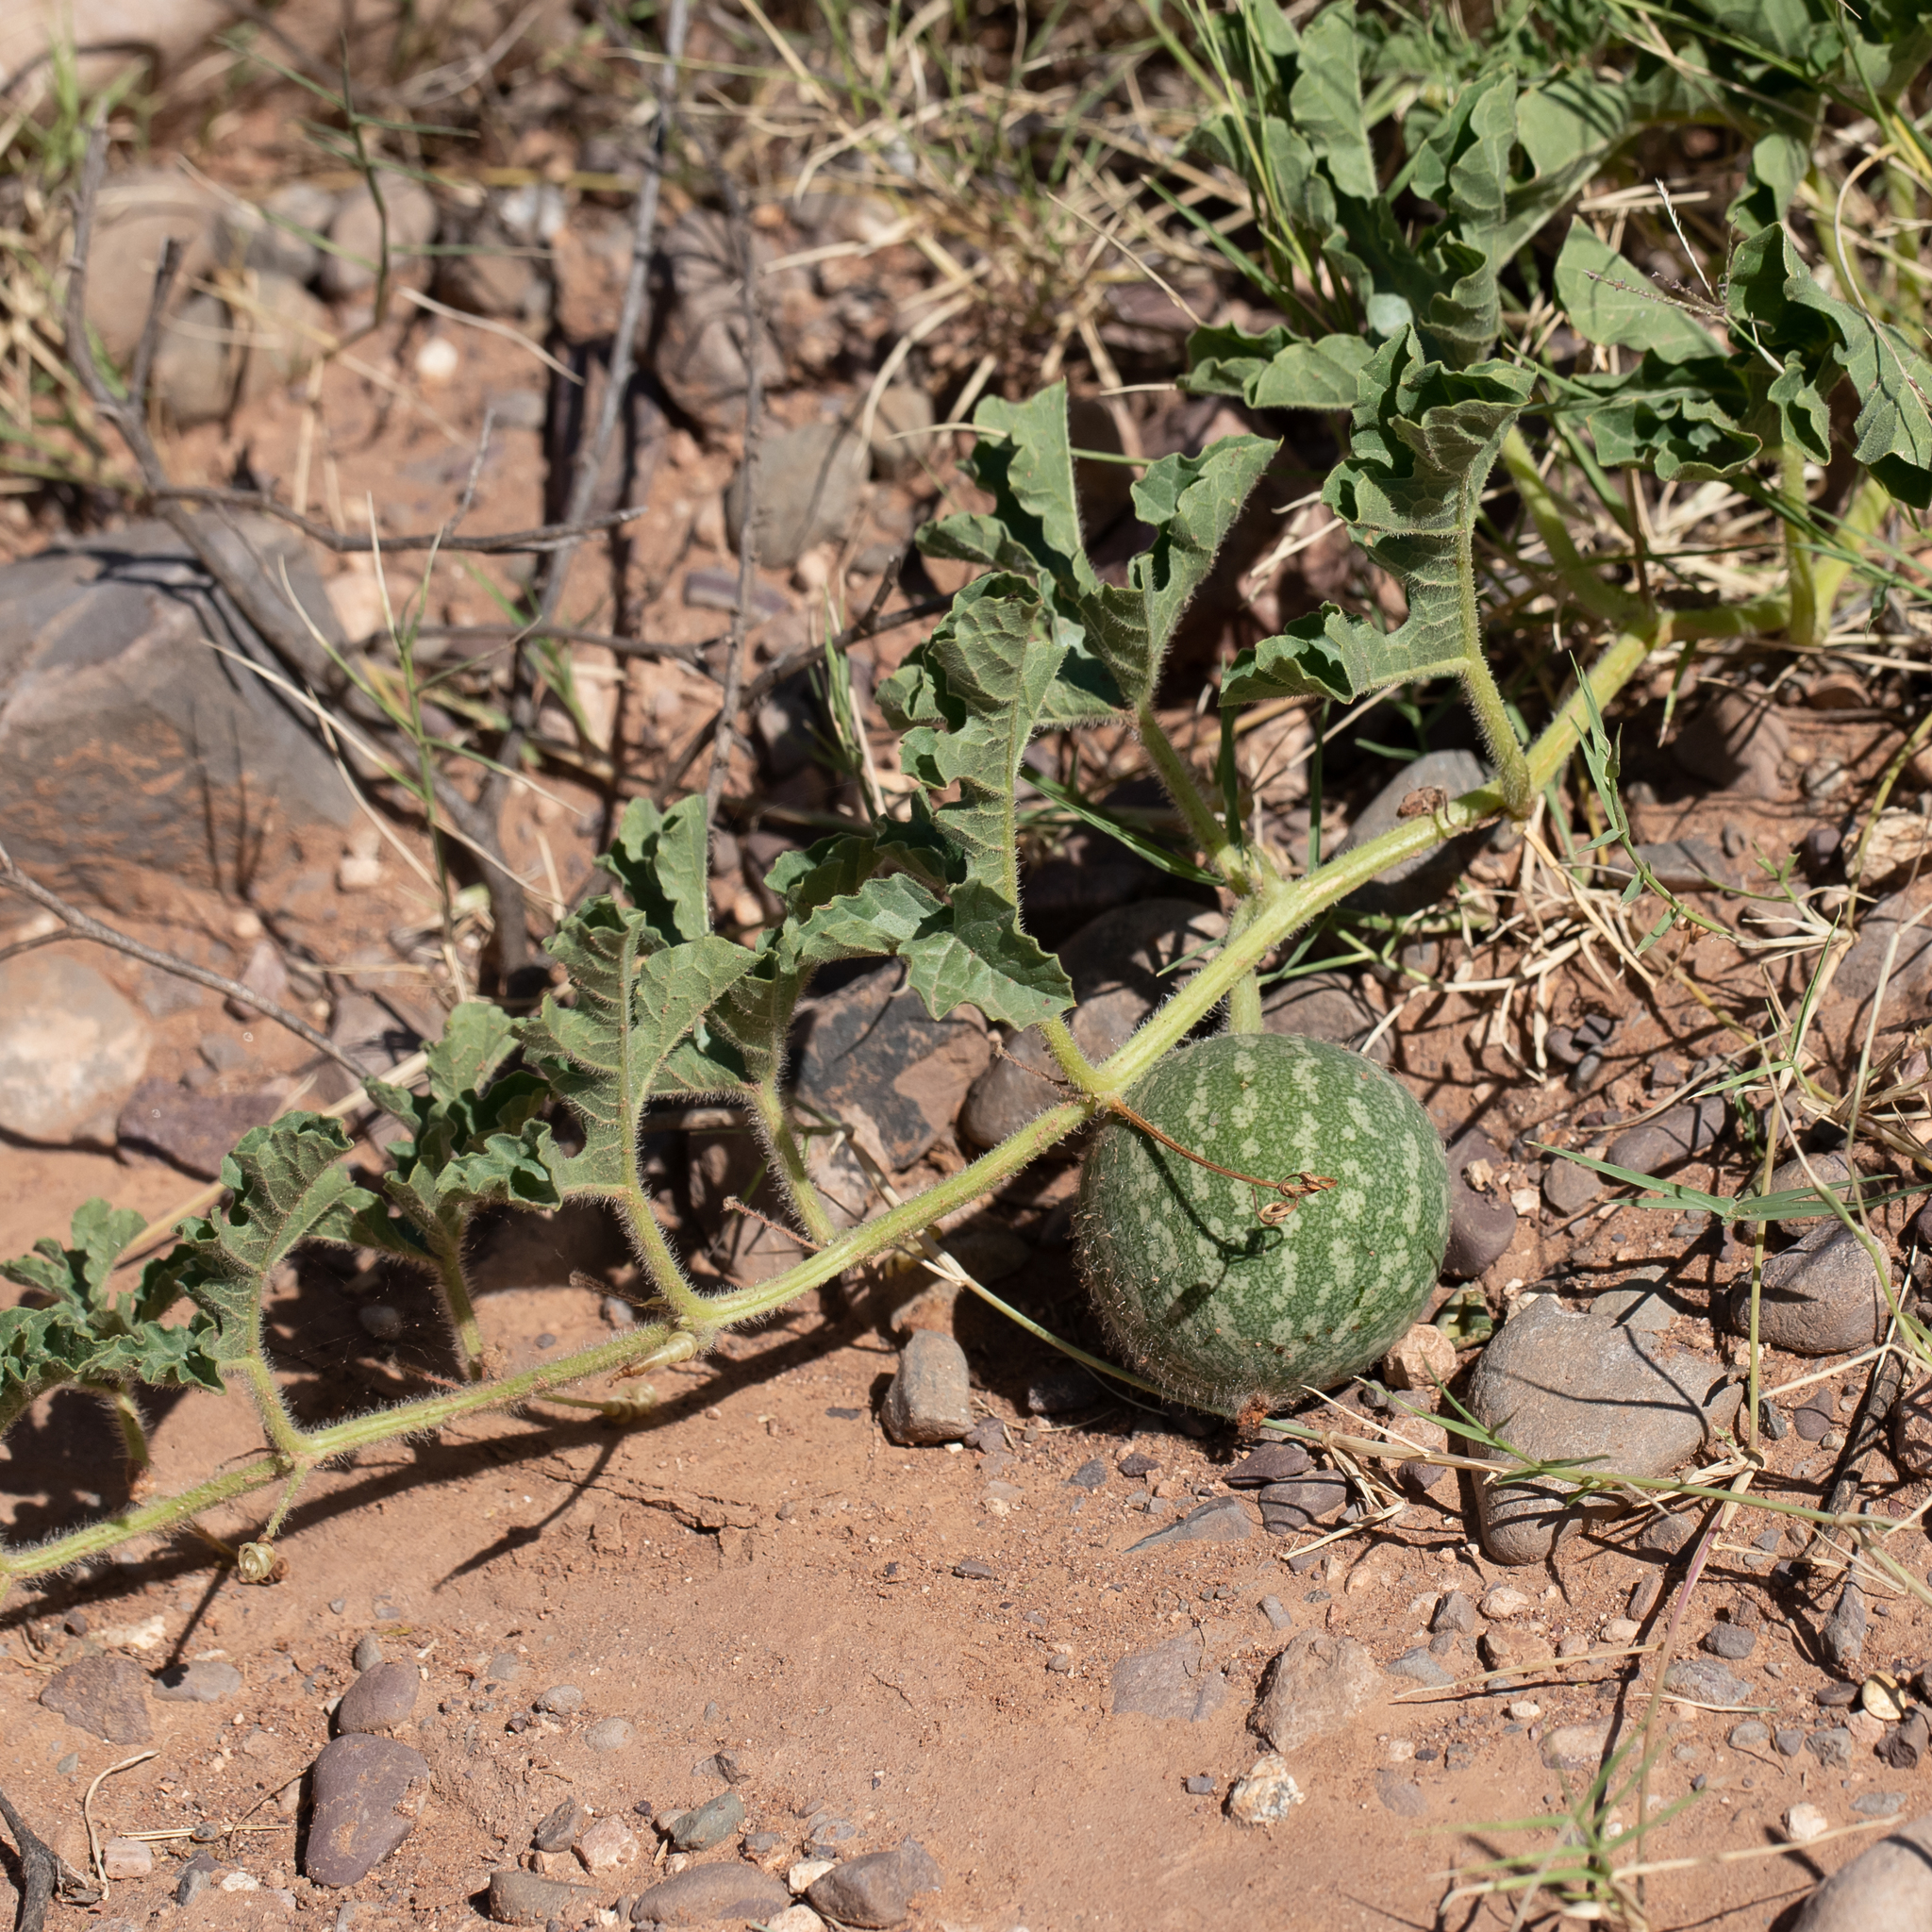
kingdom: Plantae
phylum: Tracheophyta
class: Magnoliopsida
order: Cucurbitales
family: Cucurbitaceae
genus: Citrullus
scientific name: Citrullus colocynthis
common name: Colocynth
